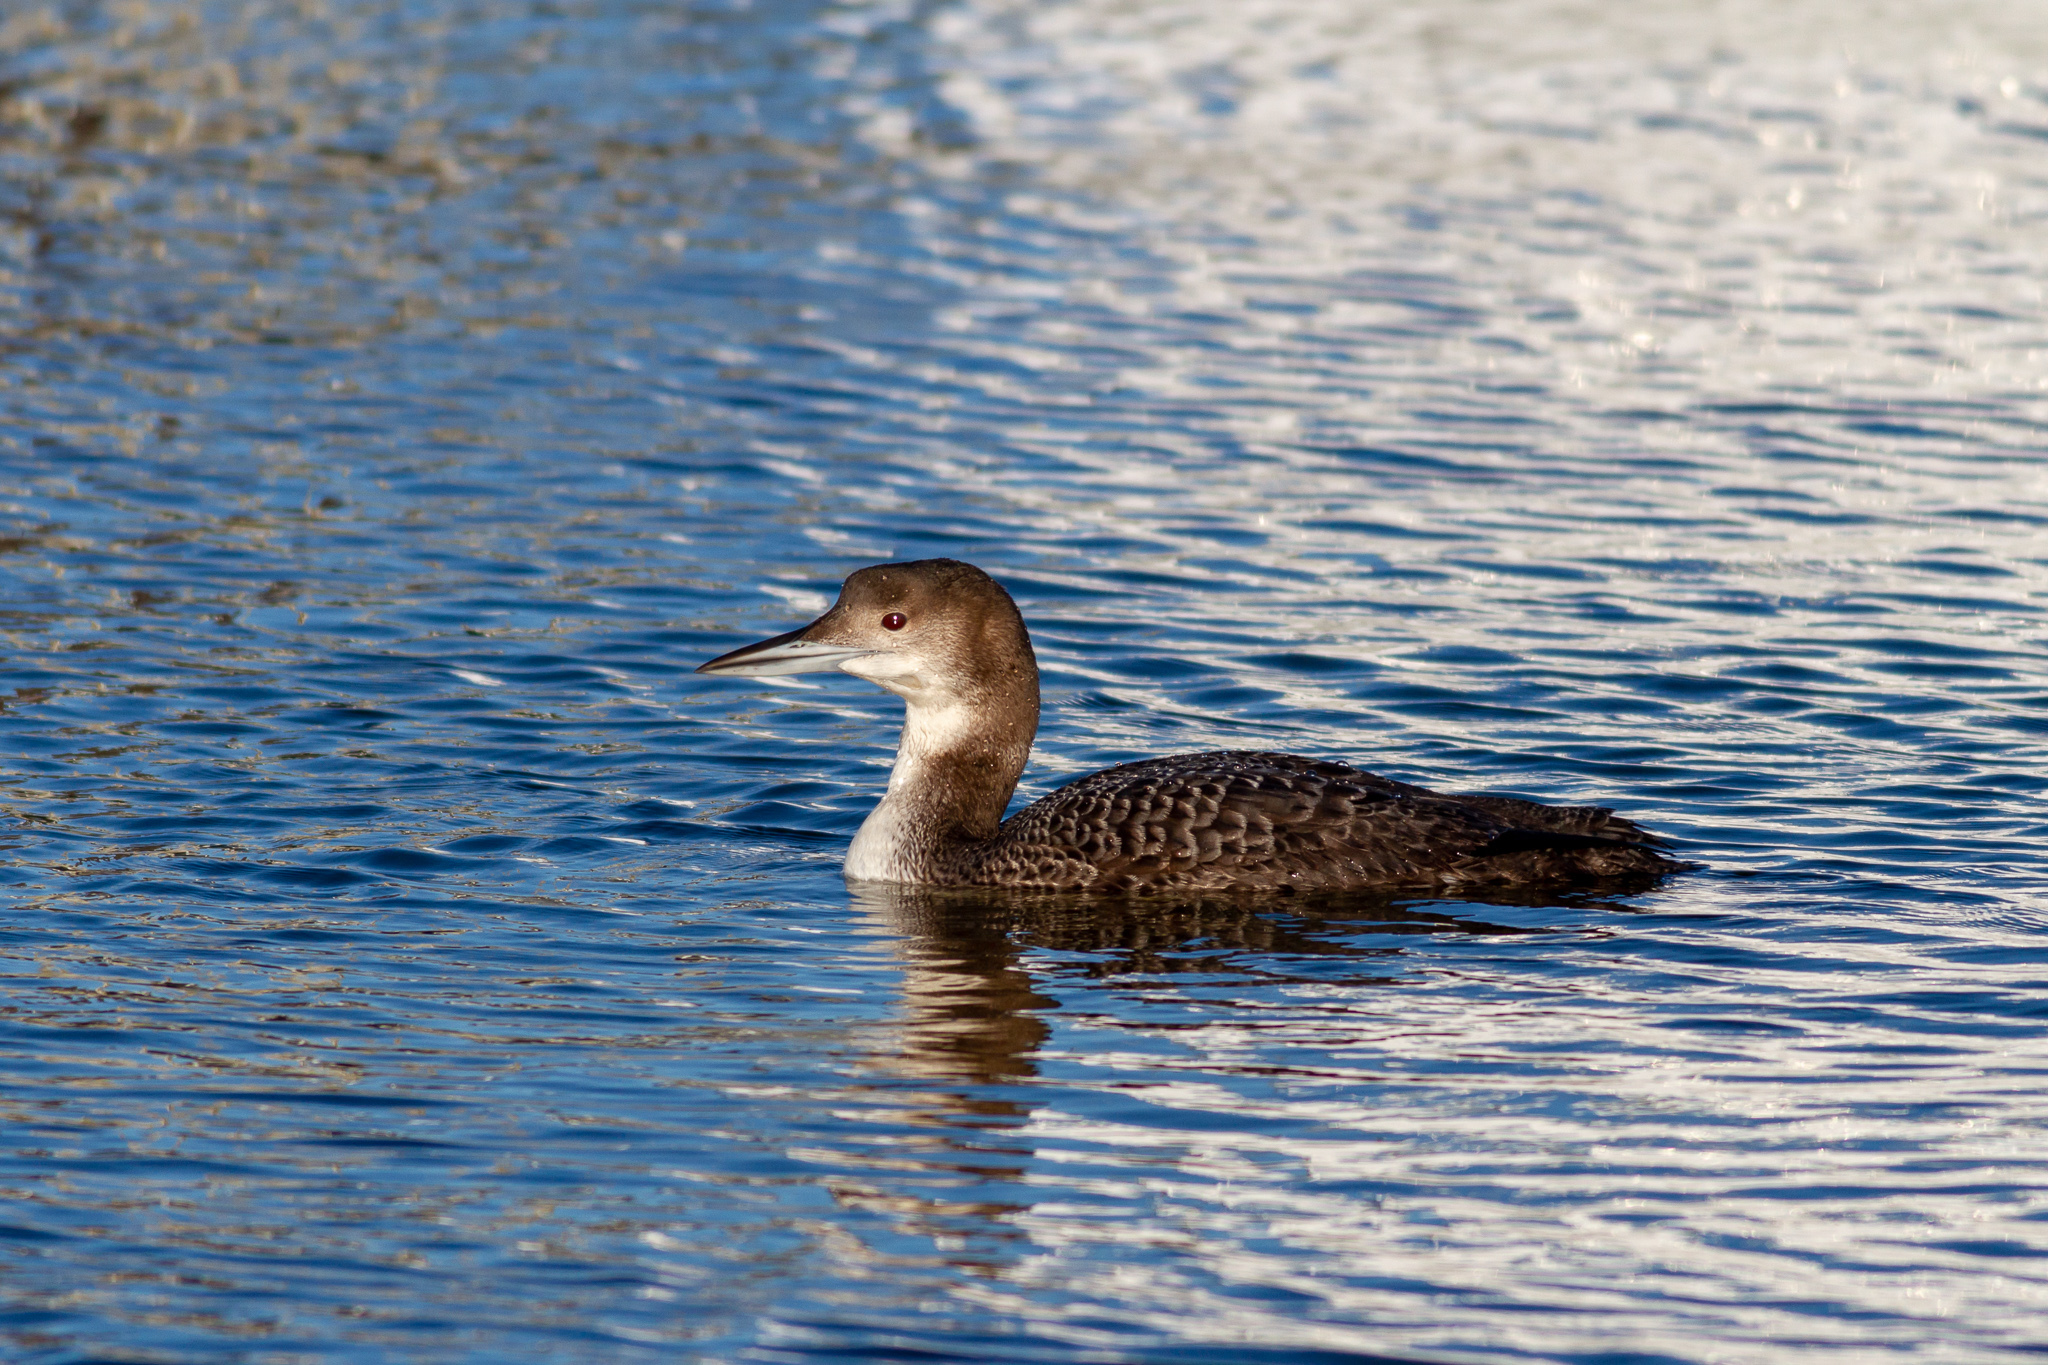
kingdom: Animalia
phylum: Chordata
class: Aves
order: Gaviiformes
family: Gaviidae
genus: Gavia
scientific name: Gavia immer
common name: Common loon
